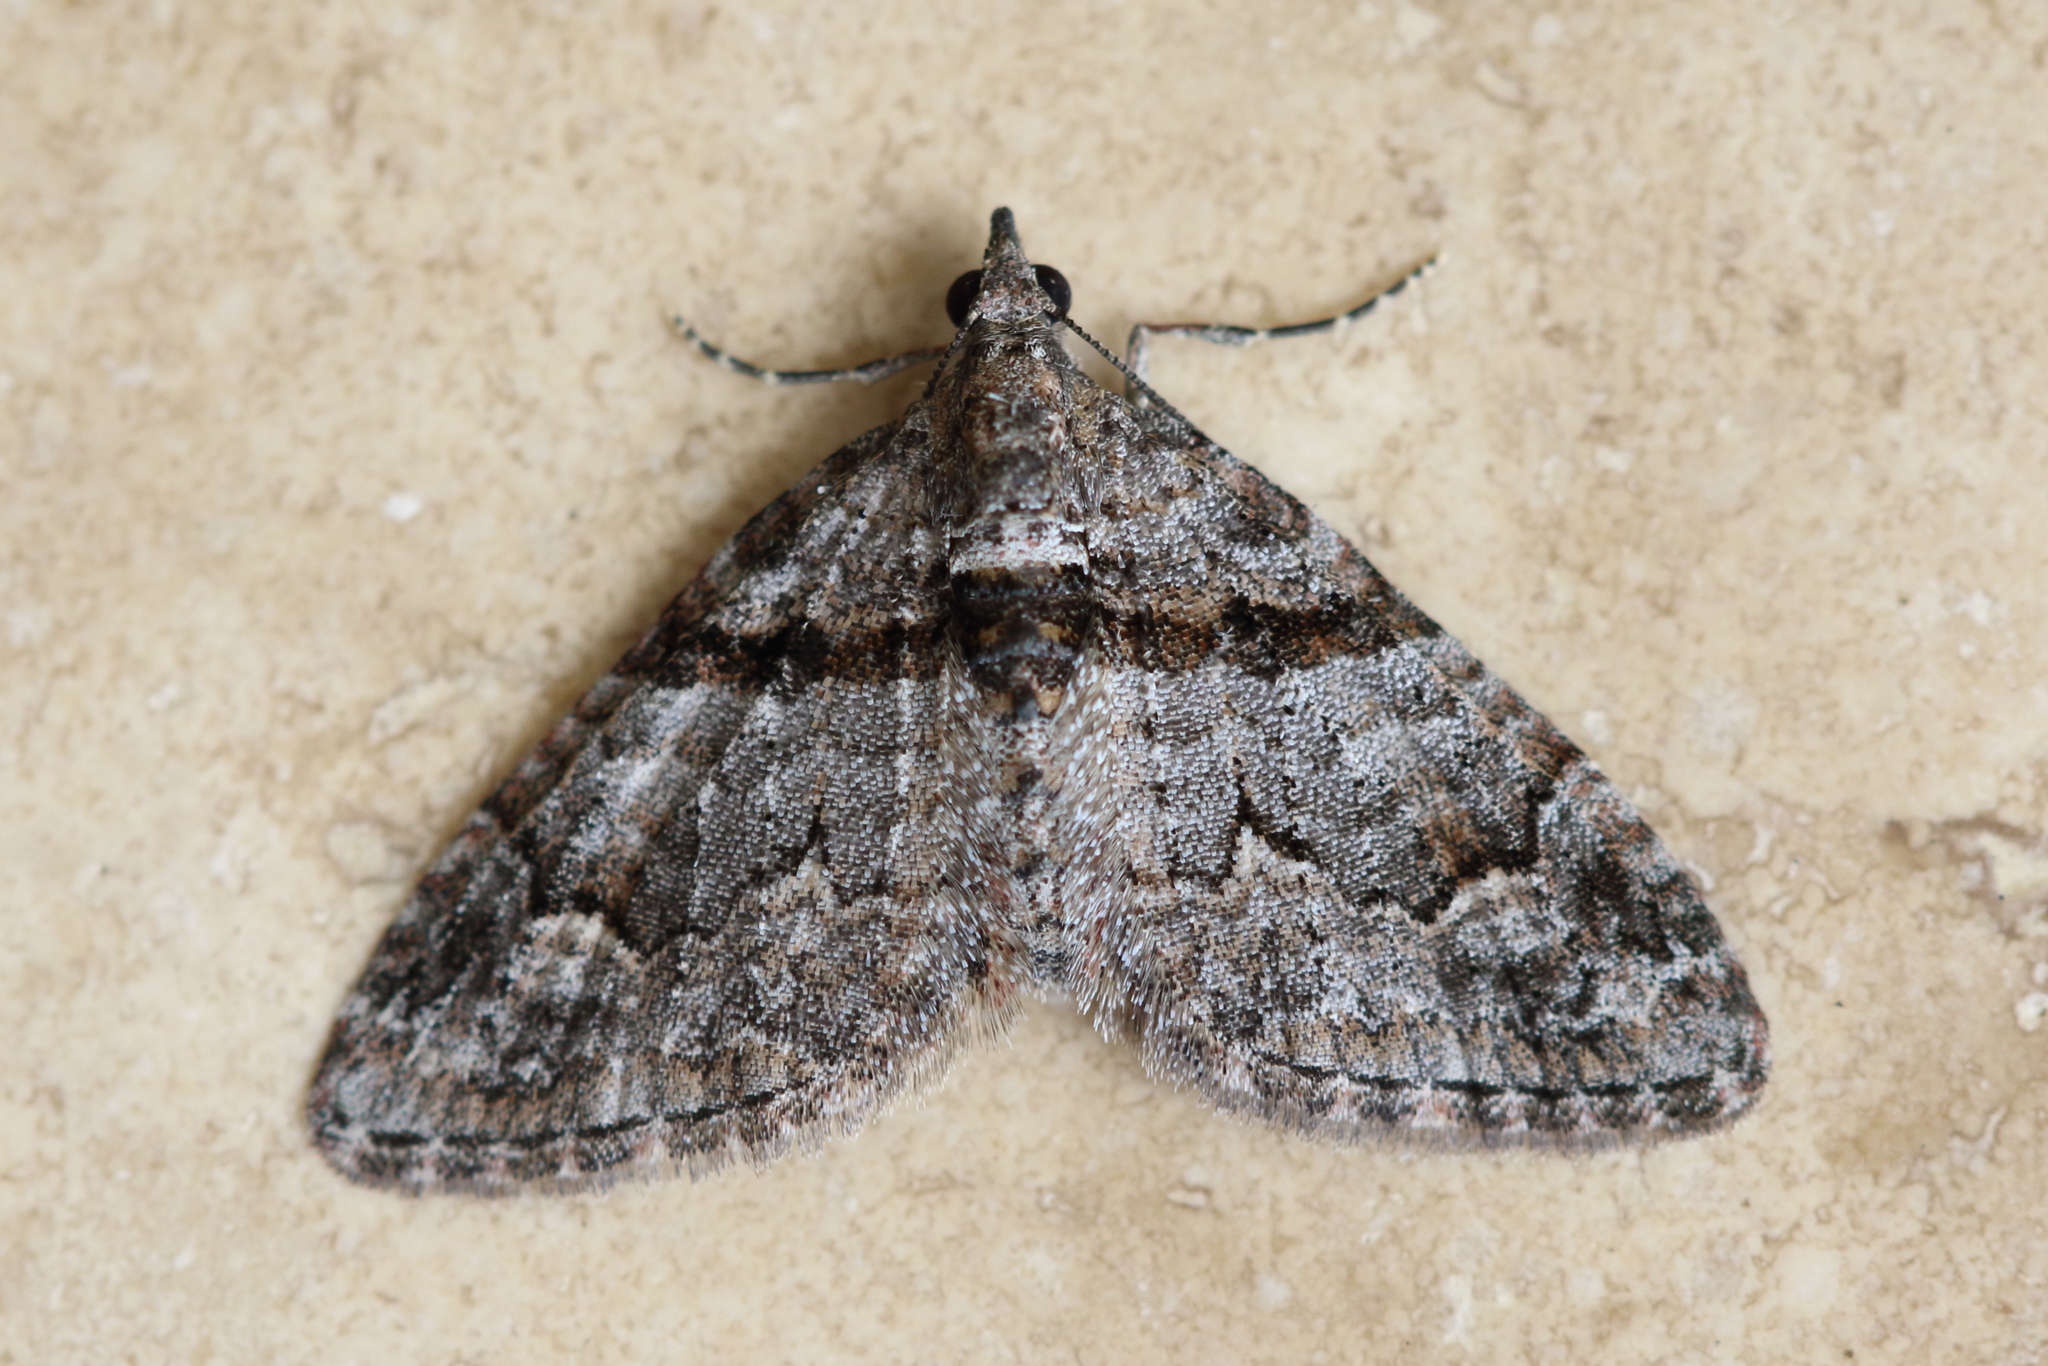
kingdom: Animalia
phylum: Arthropoda
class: Insecta
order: Lepidoptera
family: Geometridae
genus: Phrissogonus
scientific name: Phrissogonus laticostata
